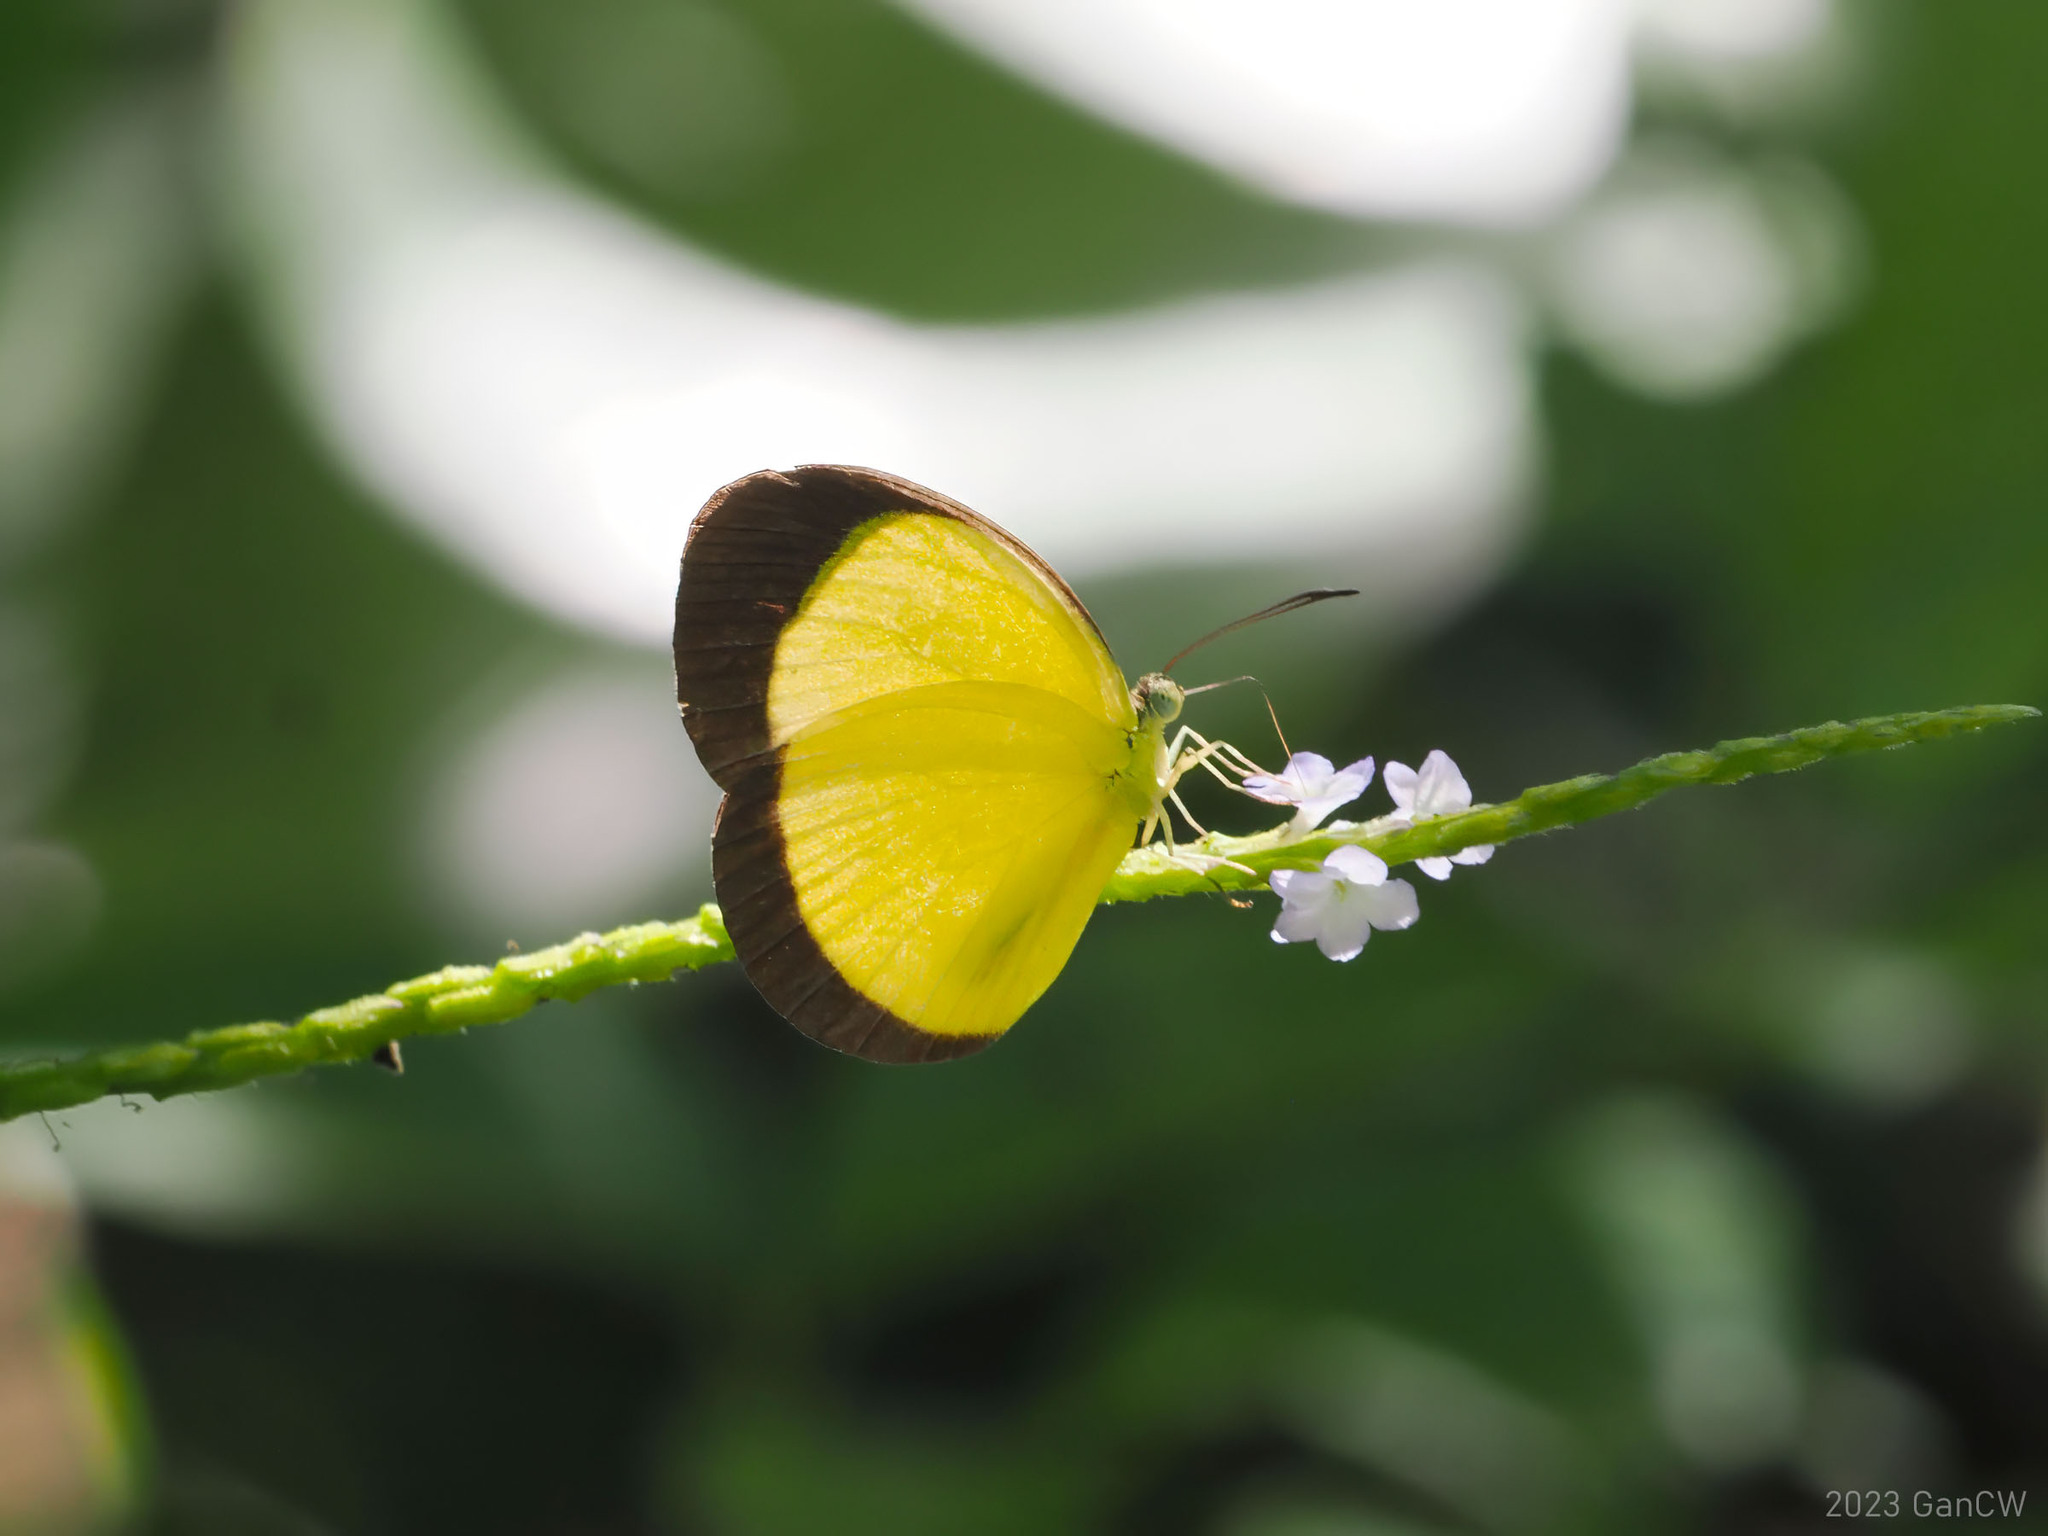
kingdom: Animalia
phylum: Arthropoda
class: Insecta
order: Lepidoptera
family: Pieridae
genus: Eurema
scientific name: Eurema puella
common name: Broad margined grass yellow
